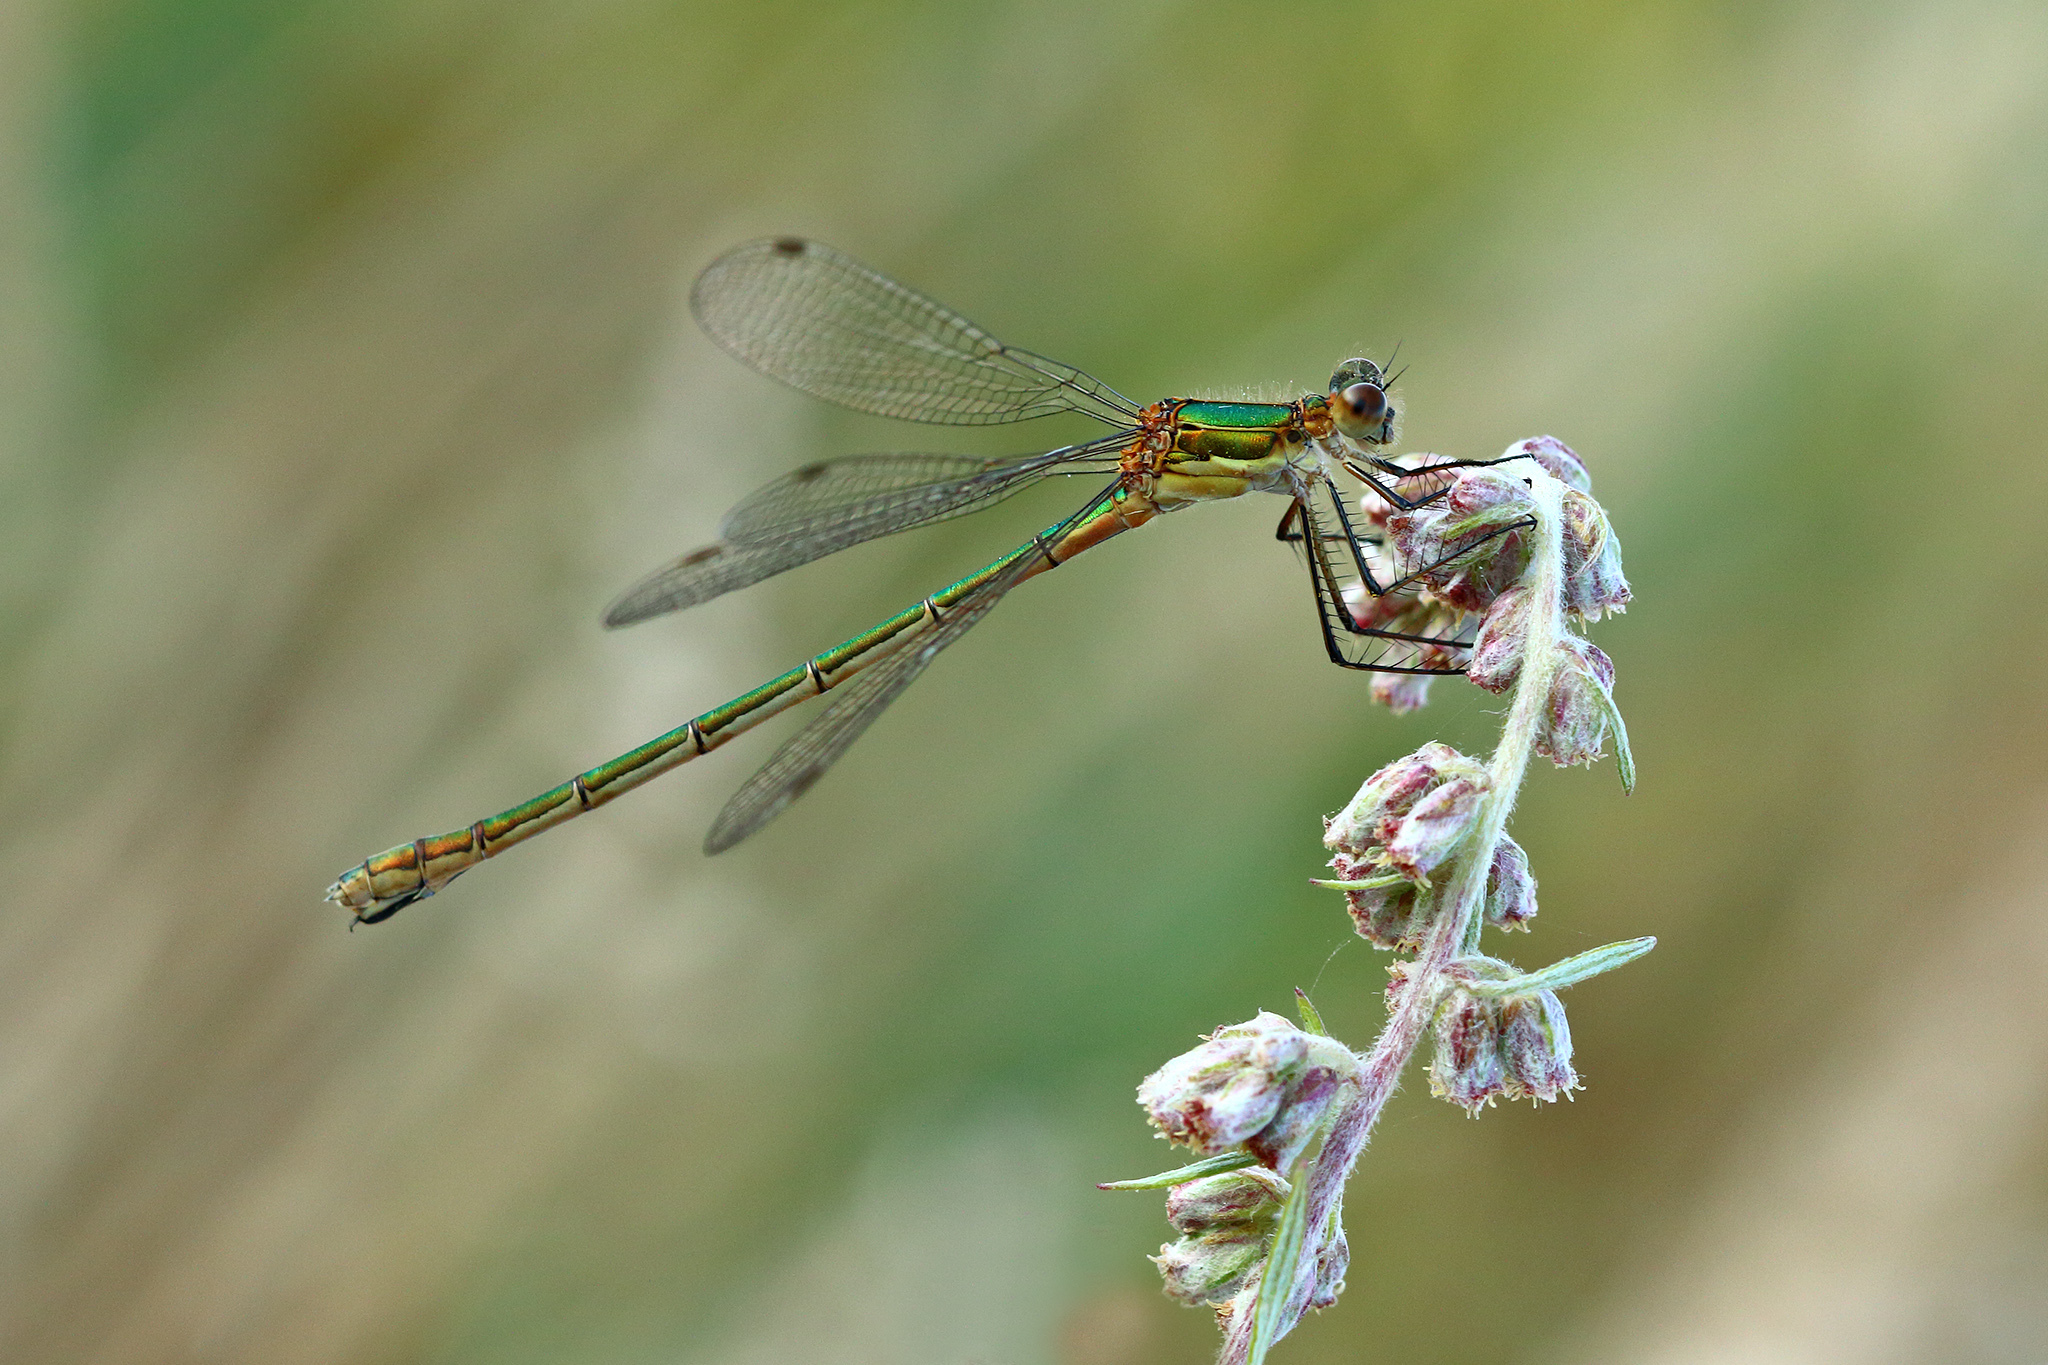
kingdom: Animalia
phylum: Arthropoda
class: Insecta
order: Odonata
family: Lestidae
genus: Lestes
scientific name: Lestes sponsa
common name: Common spreadwing
